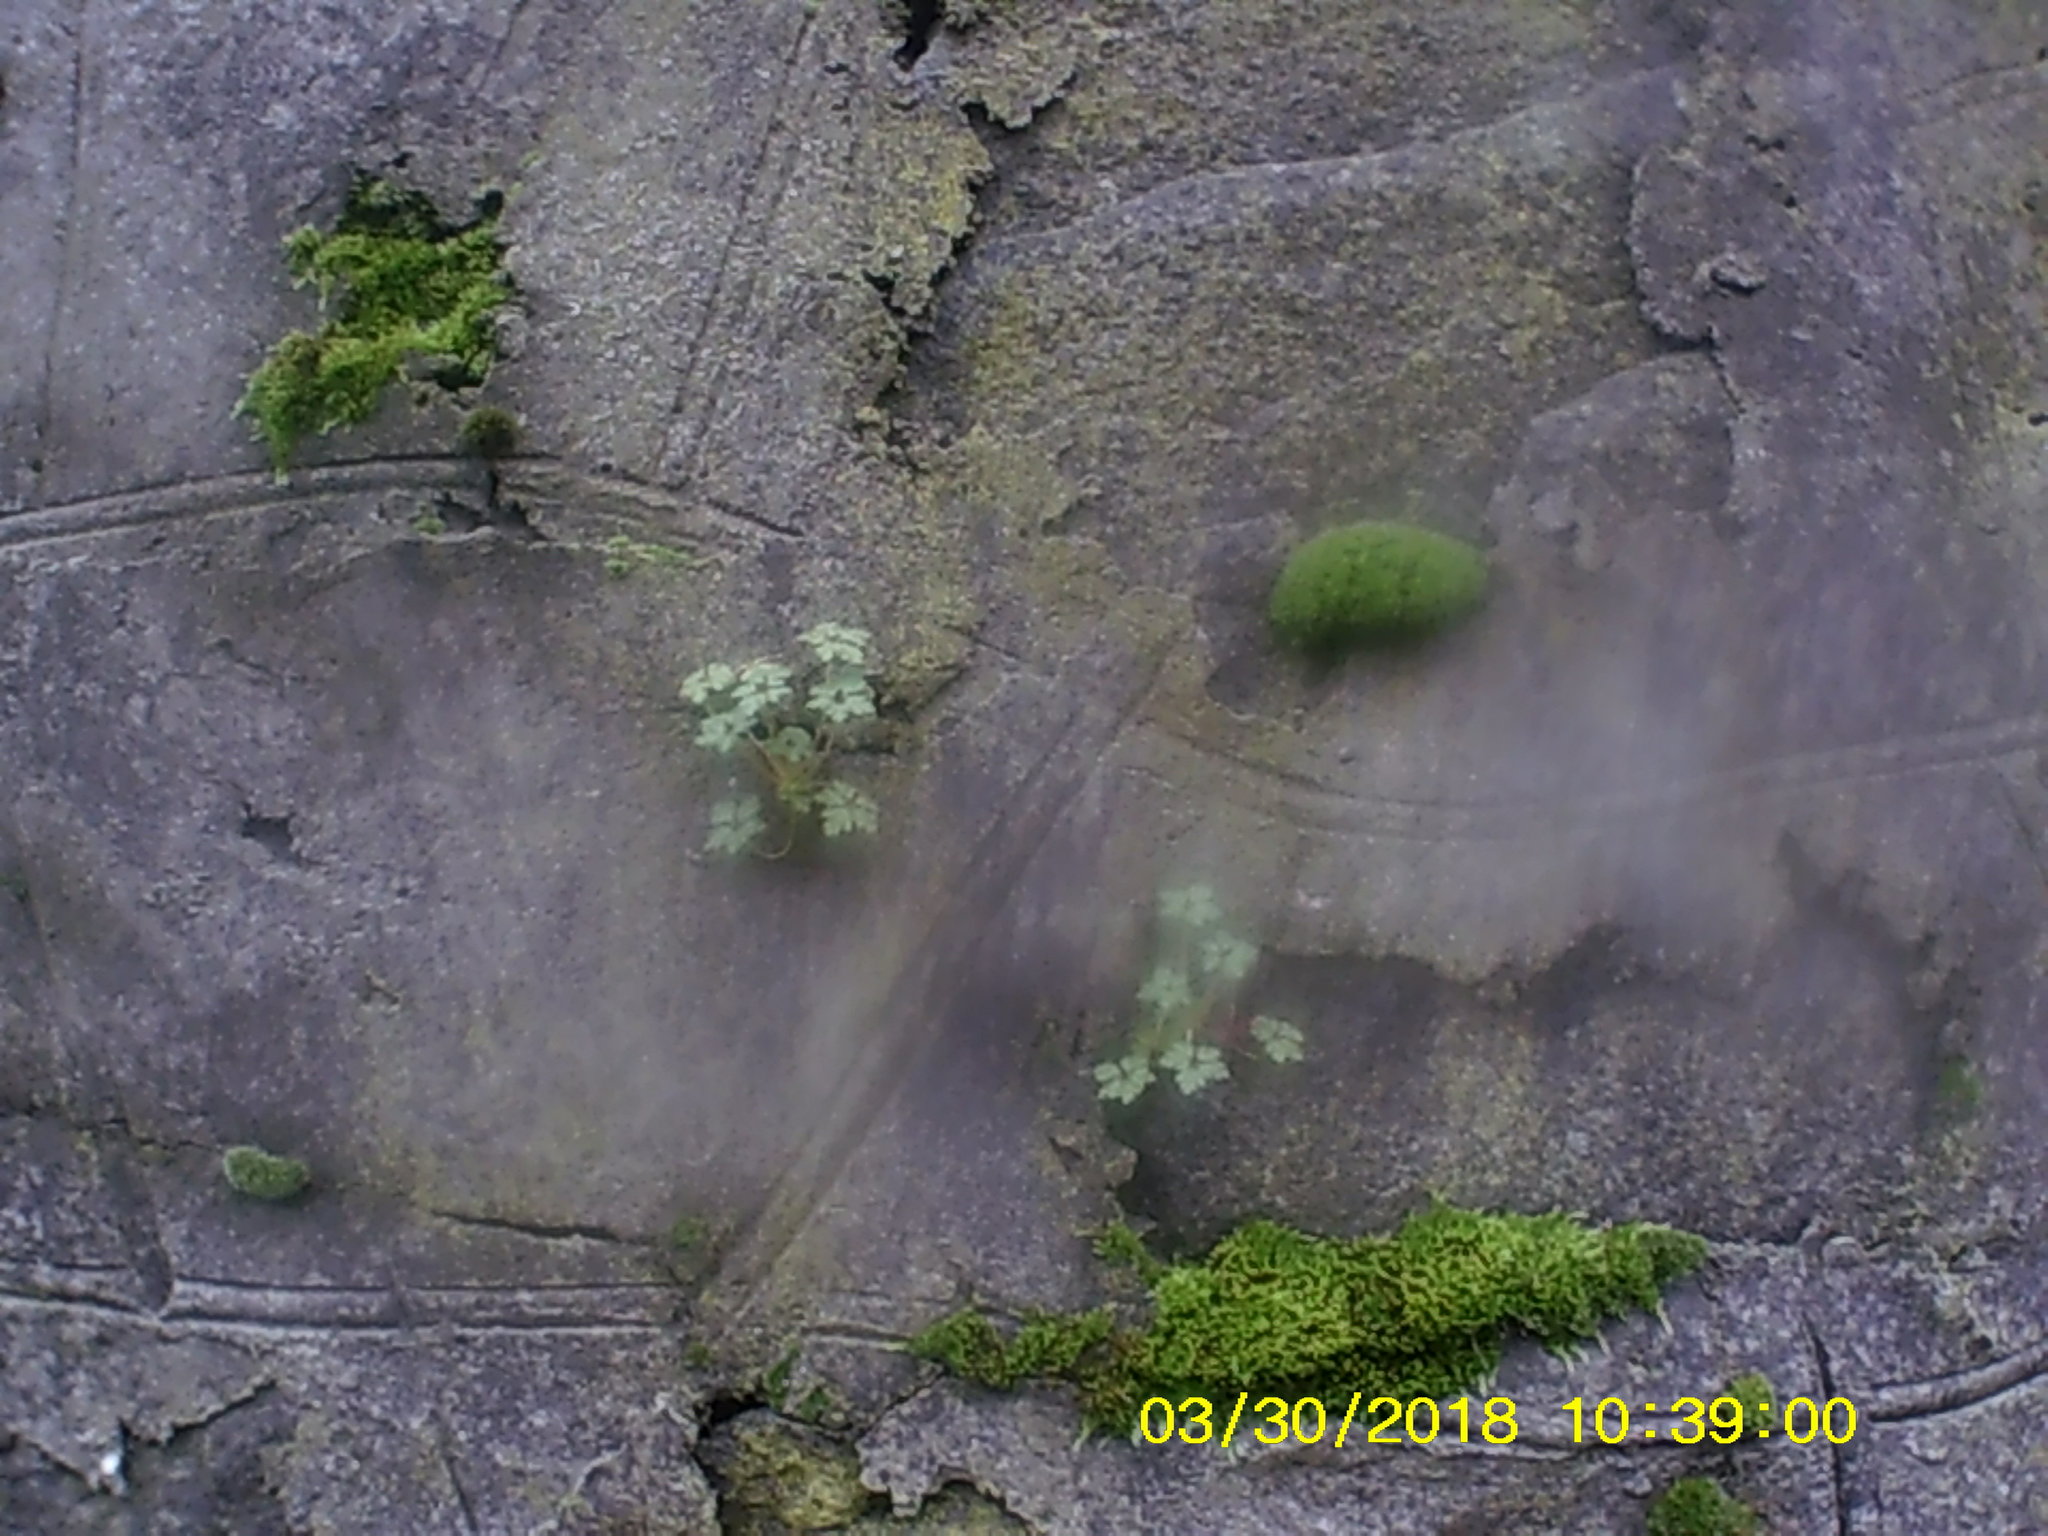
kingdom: Plantae
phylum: Tracheophyta
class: Magnoliopsida
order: Geraniales
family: Geraniaceae
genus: Geranium
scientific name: Geranium robertianum
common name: Herb-robert
